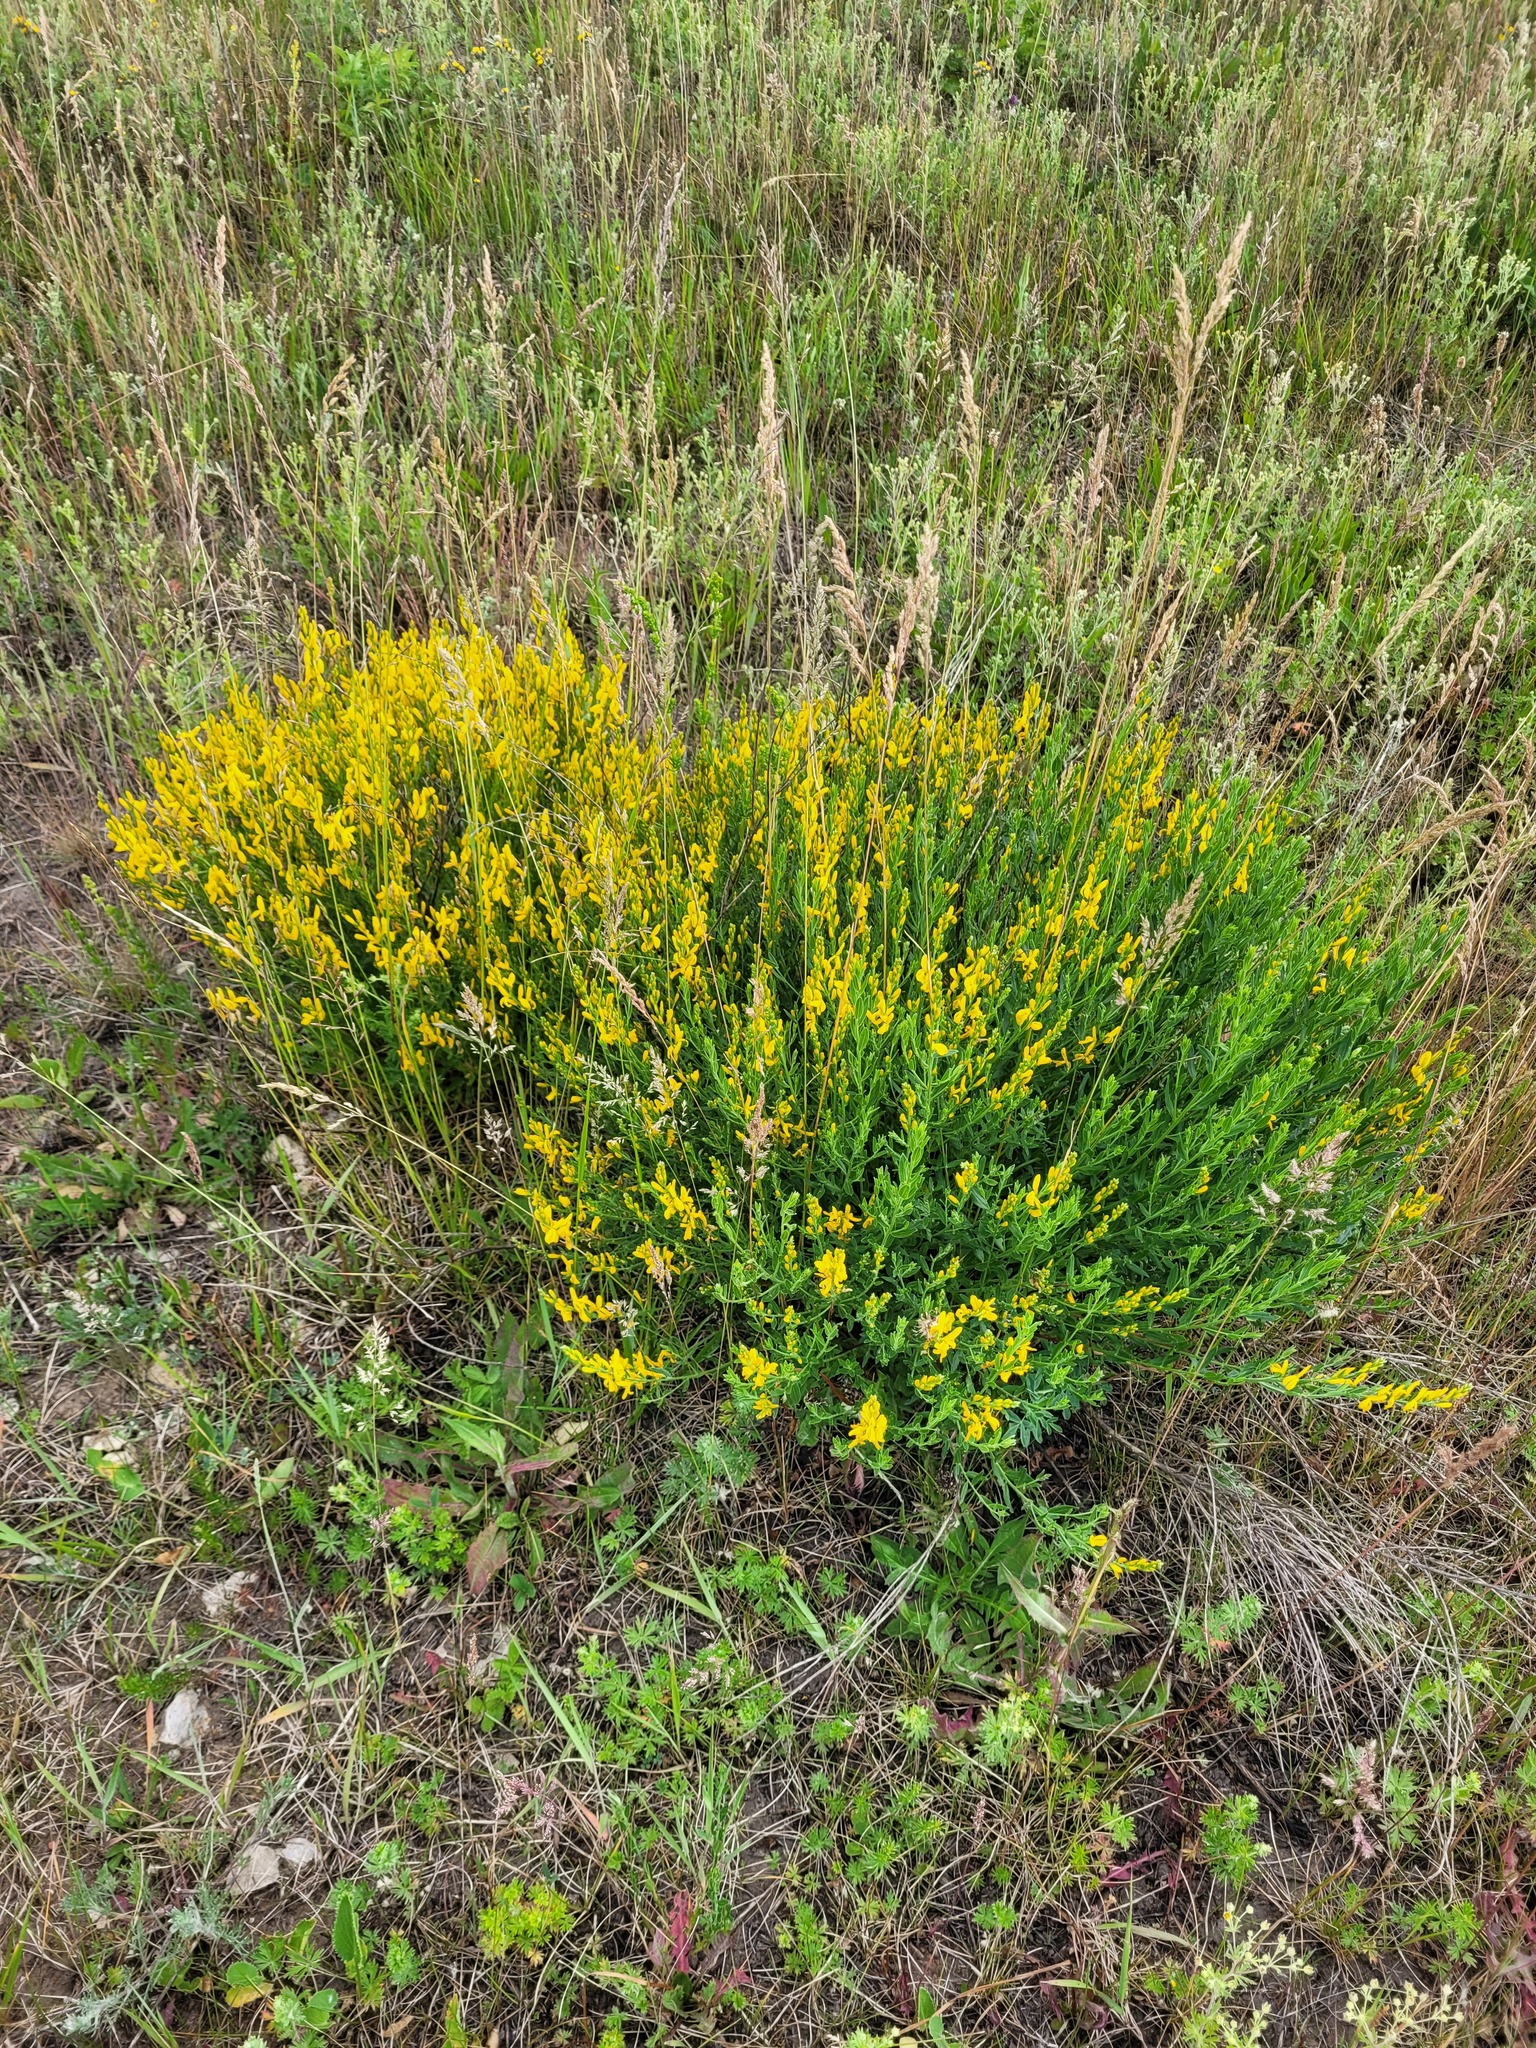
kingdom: Plantae
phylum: Tracheophyta
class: Magnoliopsida
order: Fabales
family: Fabaceae
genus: Genista
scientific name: Genista tinctoria
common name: Dyer's greenweed
